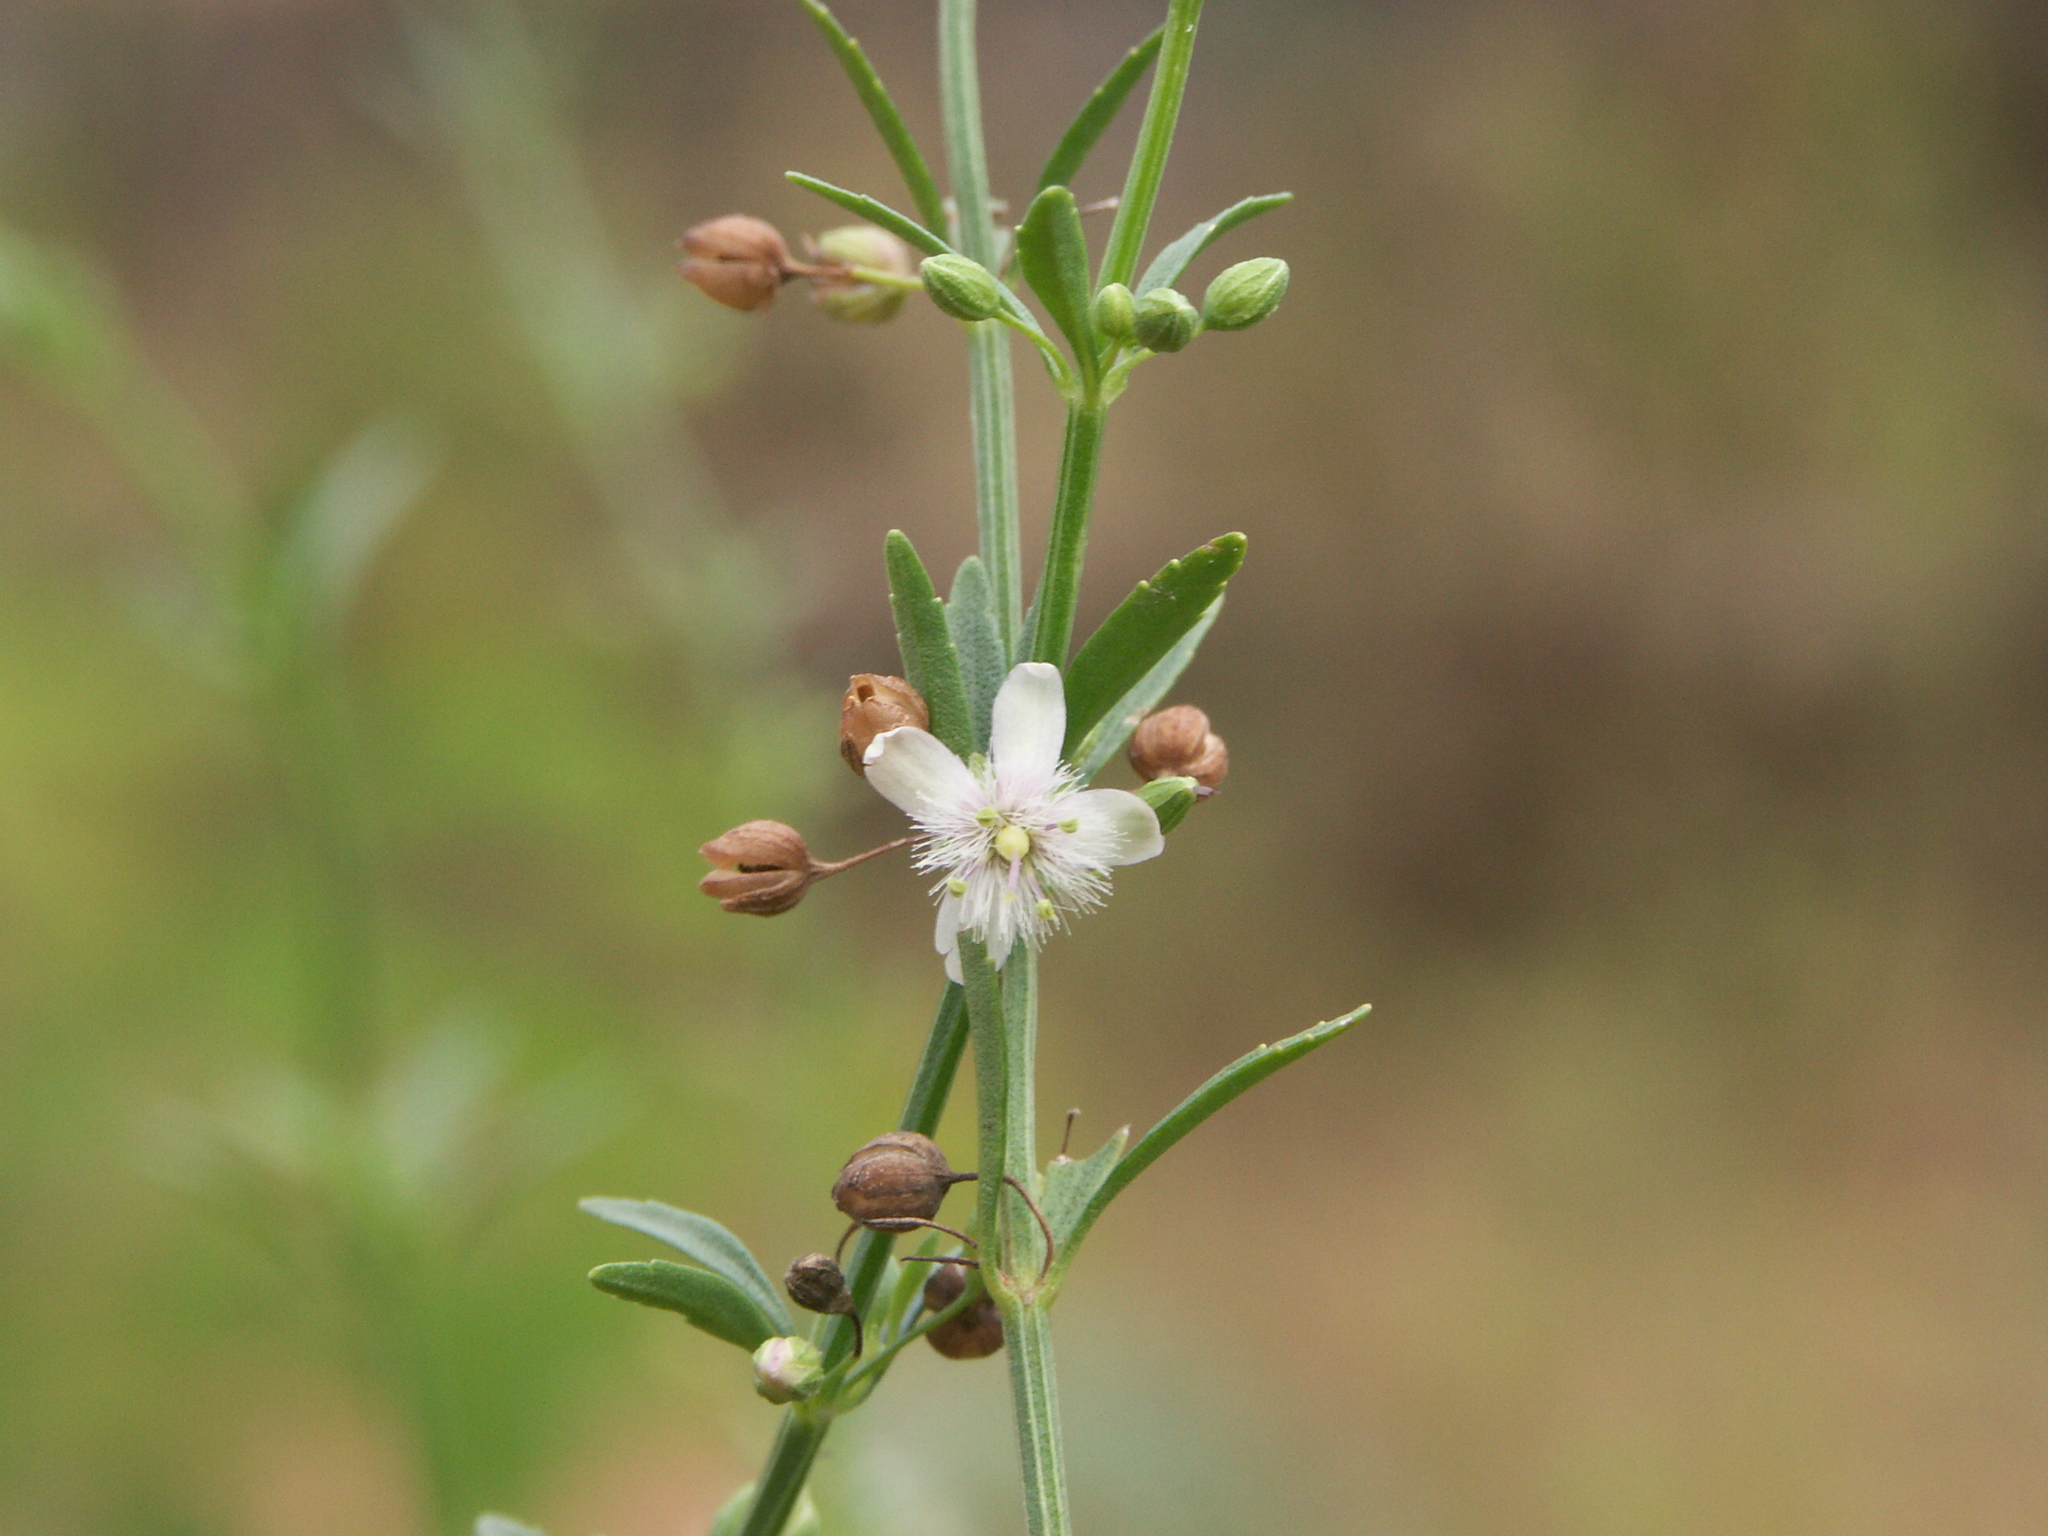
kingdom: Plantae
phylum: Tracheophyta
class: Magnoliopsida
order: Lamiales
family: Plantaginaceae
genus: Scoparia
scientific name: Scoparia dulcis
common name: Scoparia-weed
